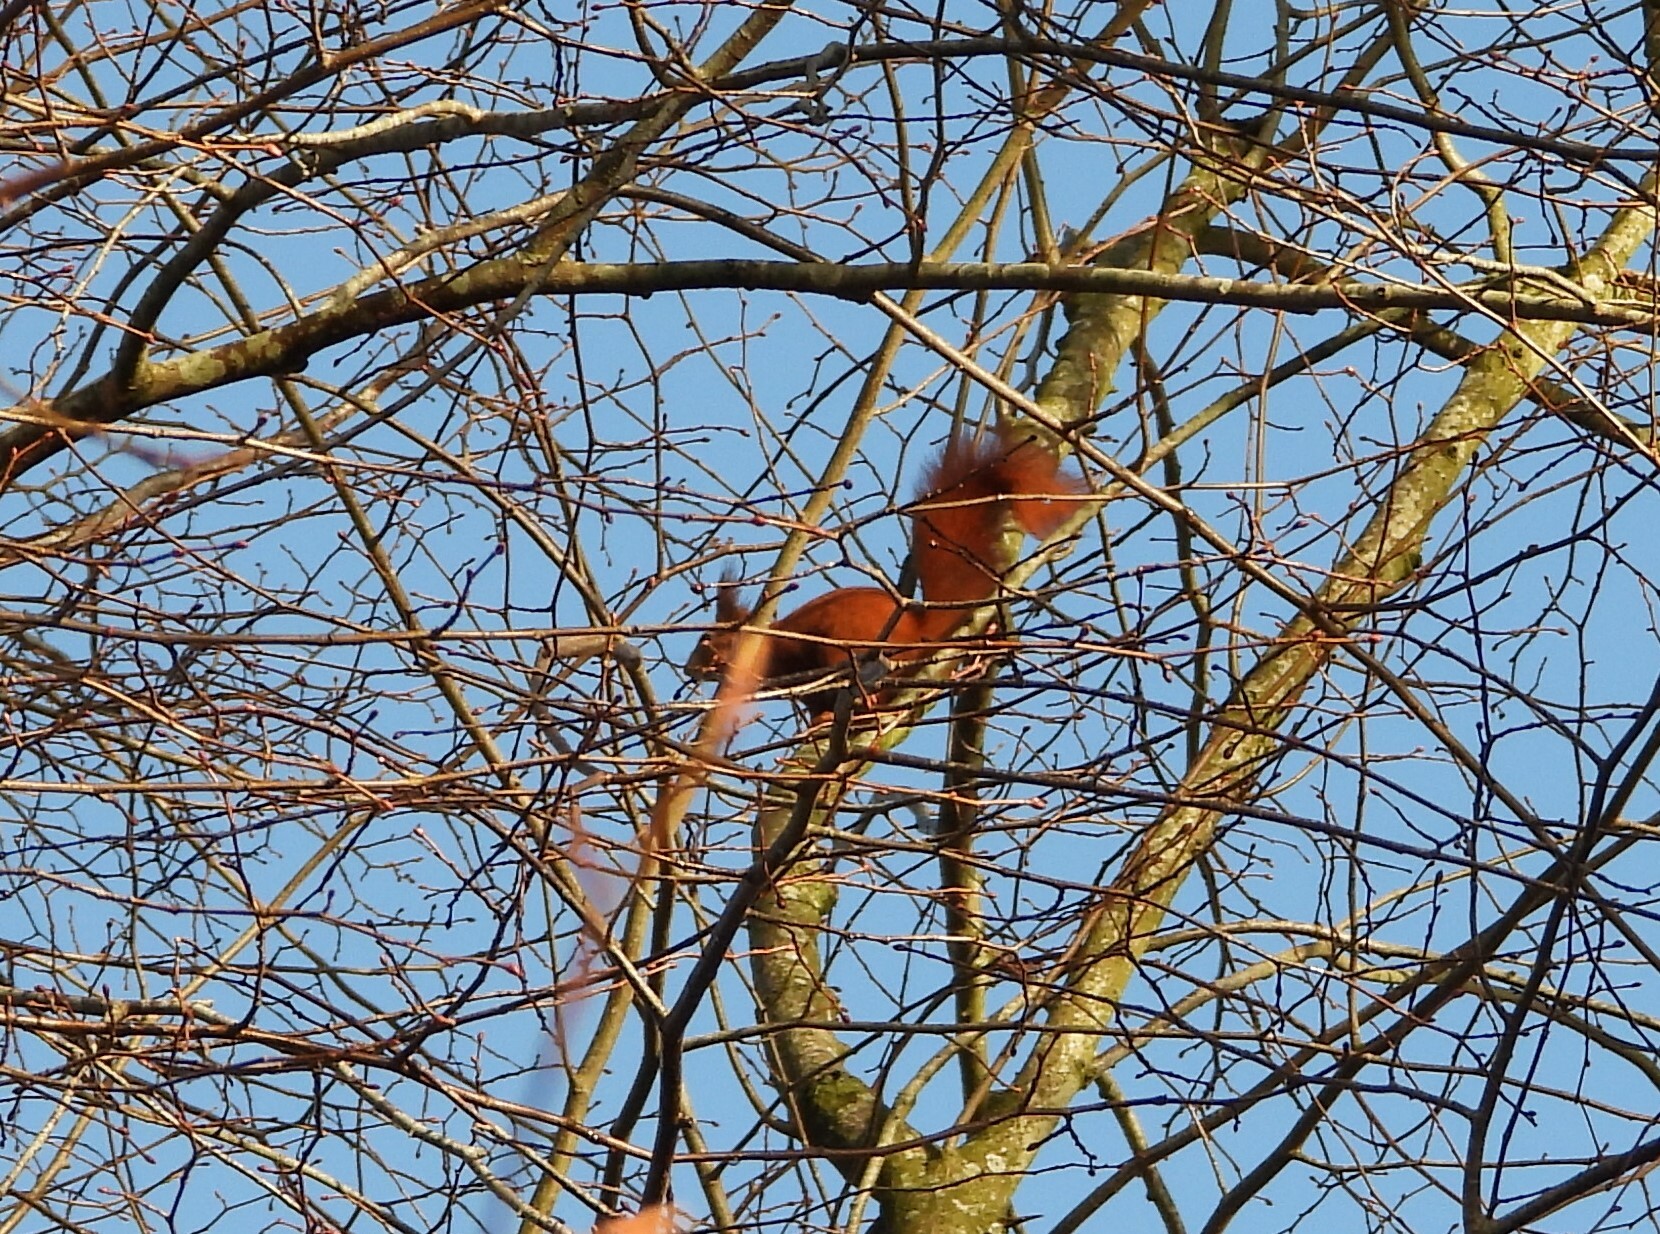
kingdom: Animalia
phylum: Chordata
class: Mammalia
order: Rodentia
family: Sciuridae
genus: Sciurus
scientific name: Sciurus vulgaris
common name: Eurasian red squirrel
